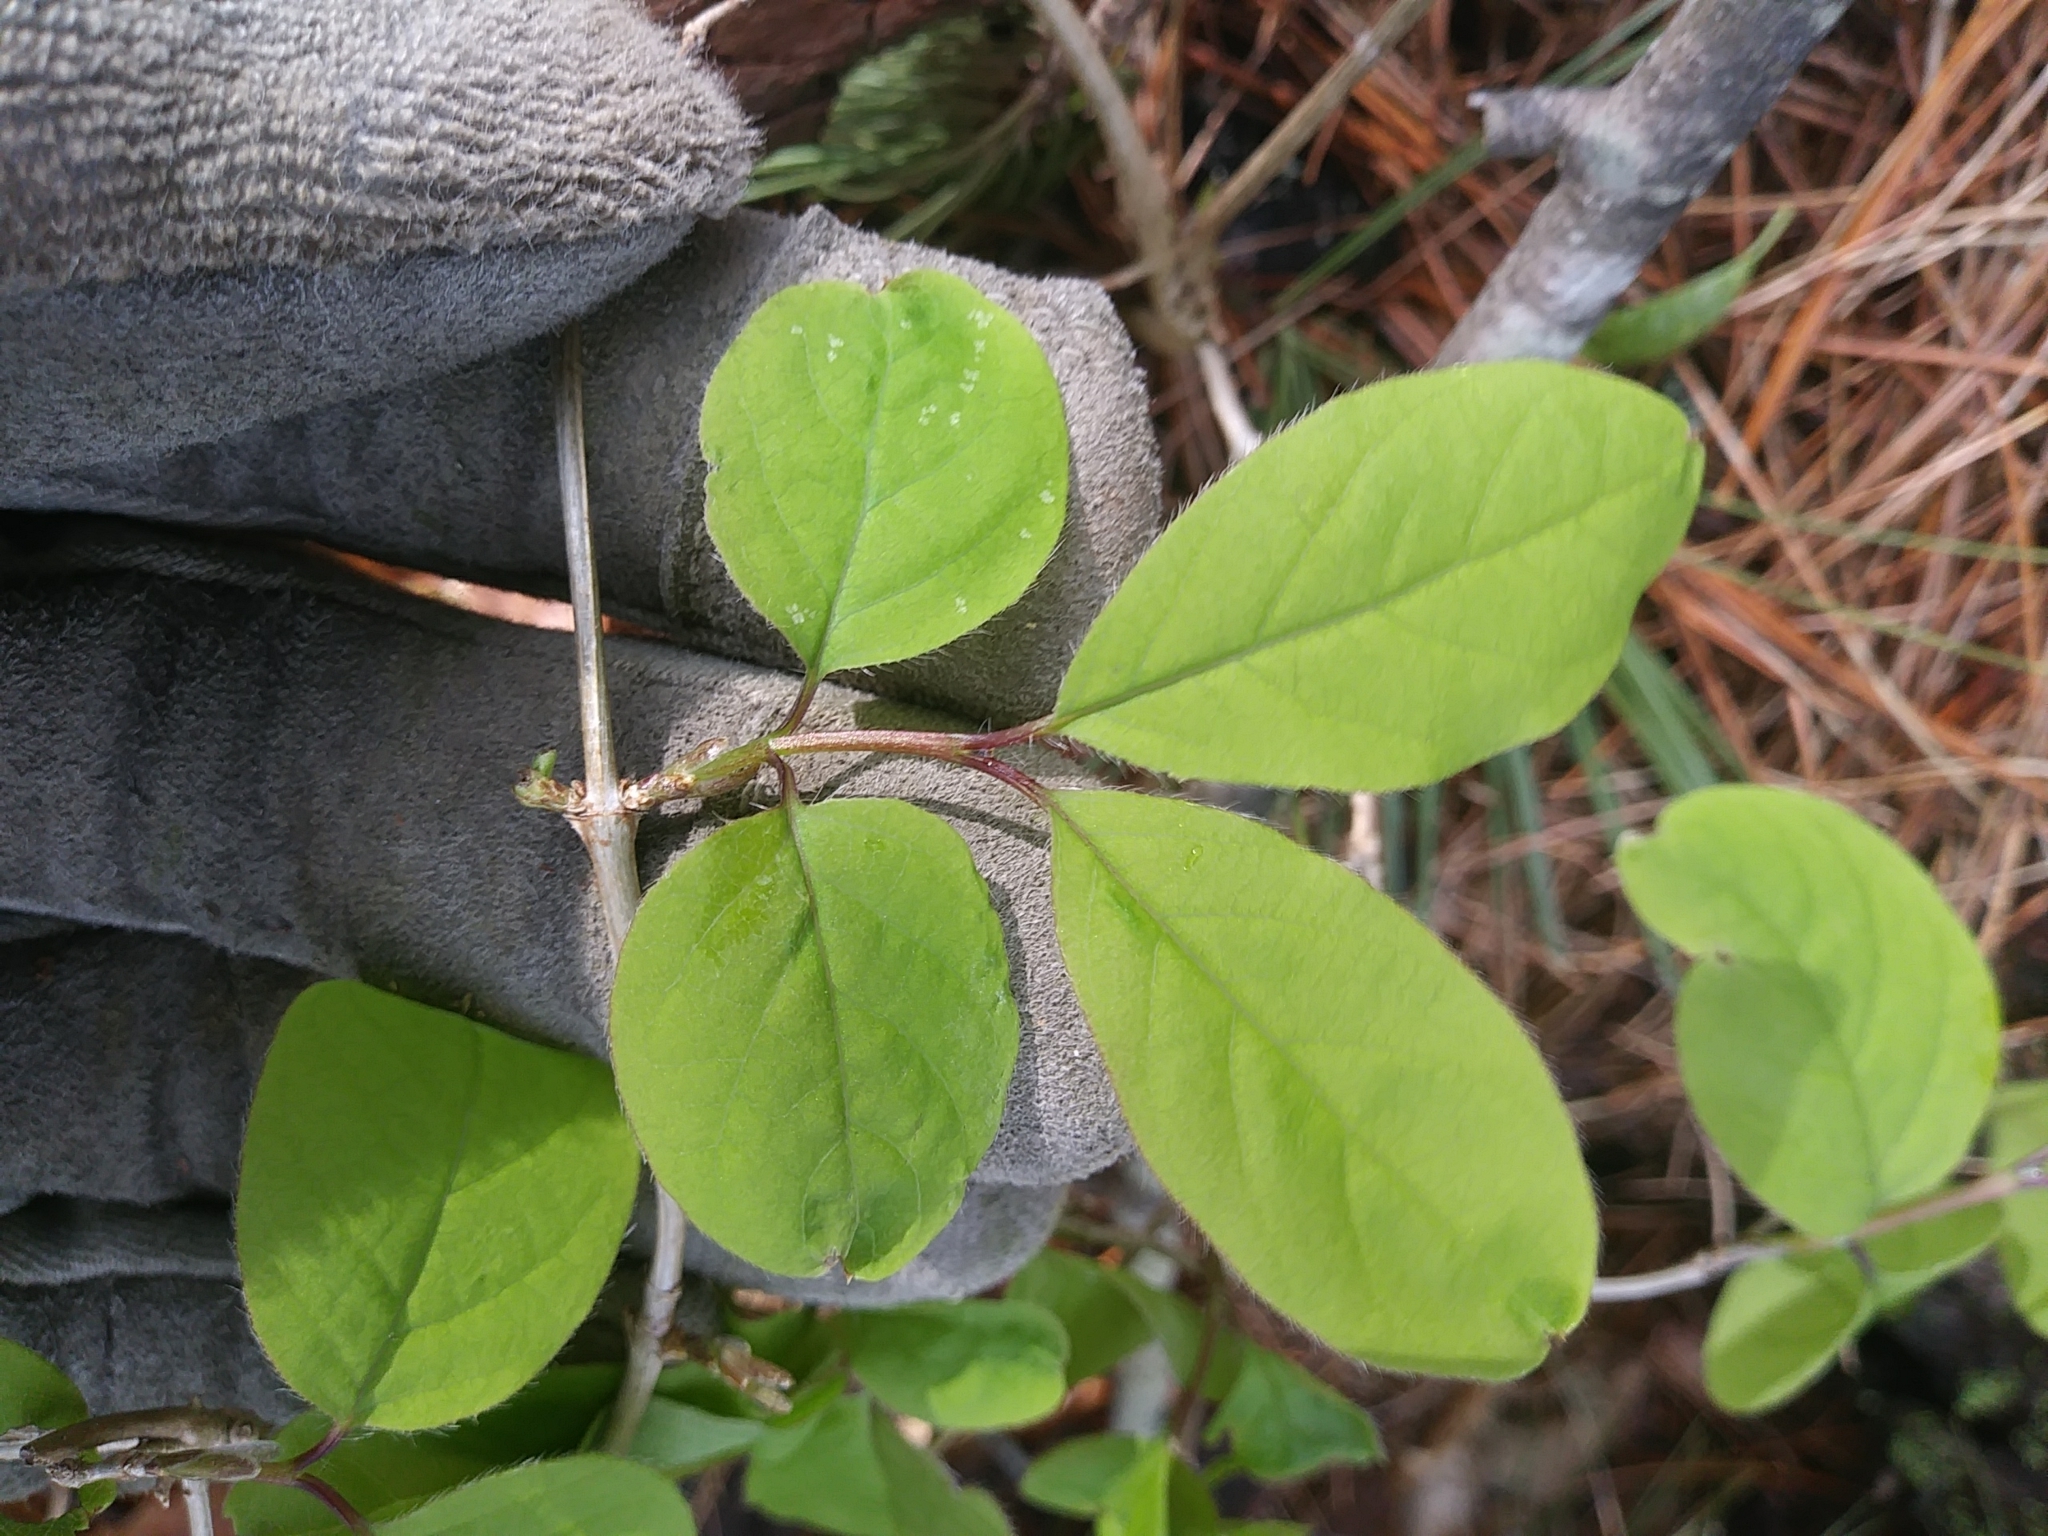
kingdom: Plantae
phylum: Tracheophyta
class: Magnoliopsida
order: Dipsacales
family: Caprifoliaceae
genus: Lonicera
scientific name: Lonicera canadensis
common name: American fly-honeysuckle
